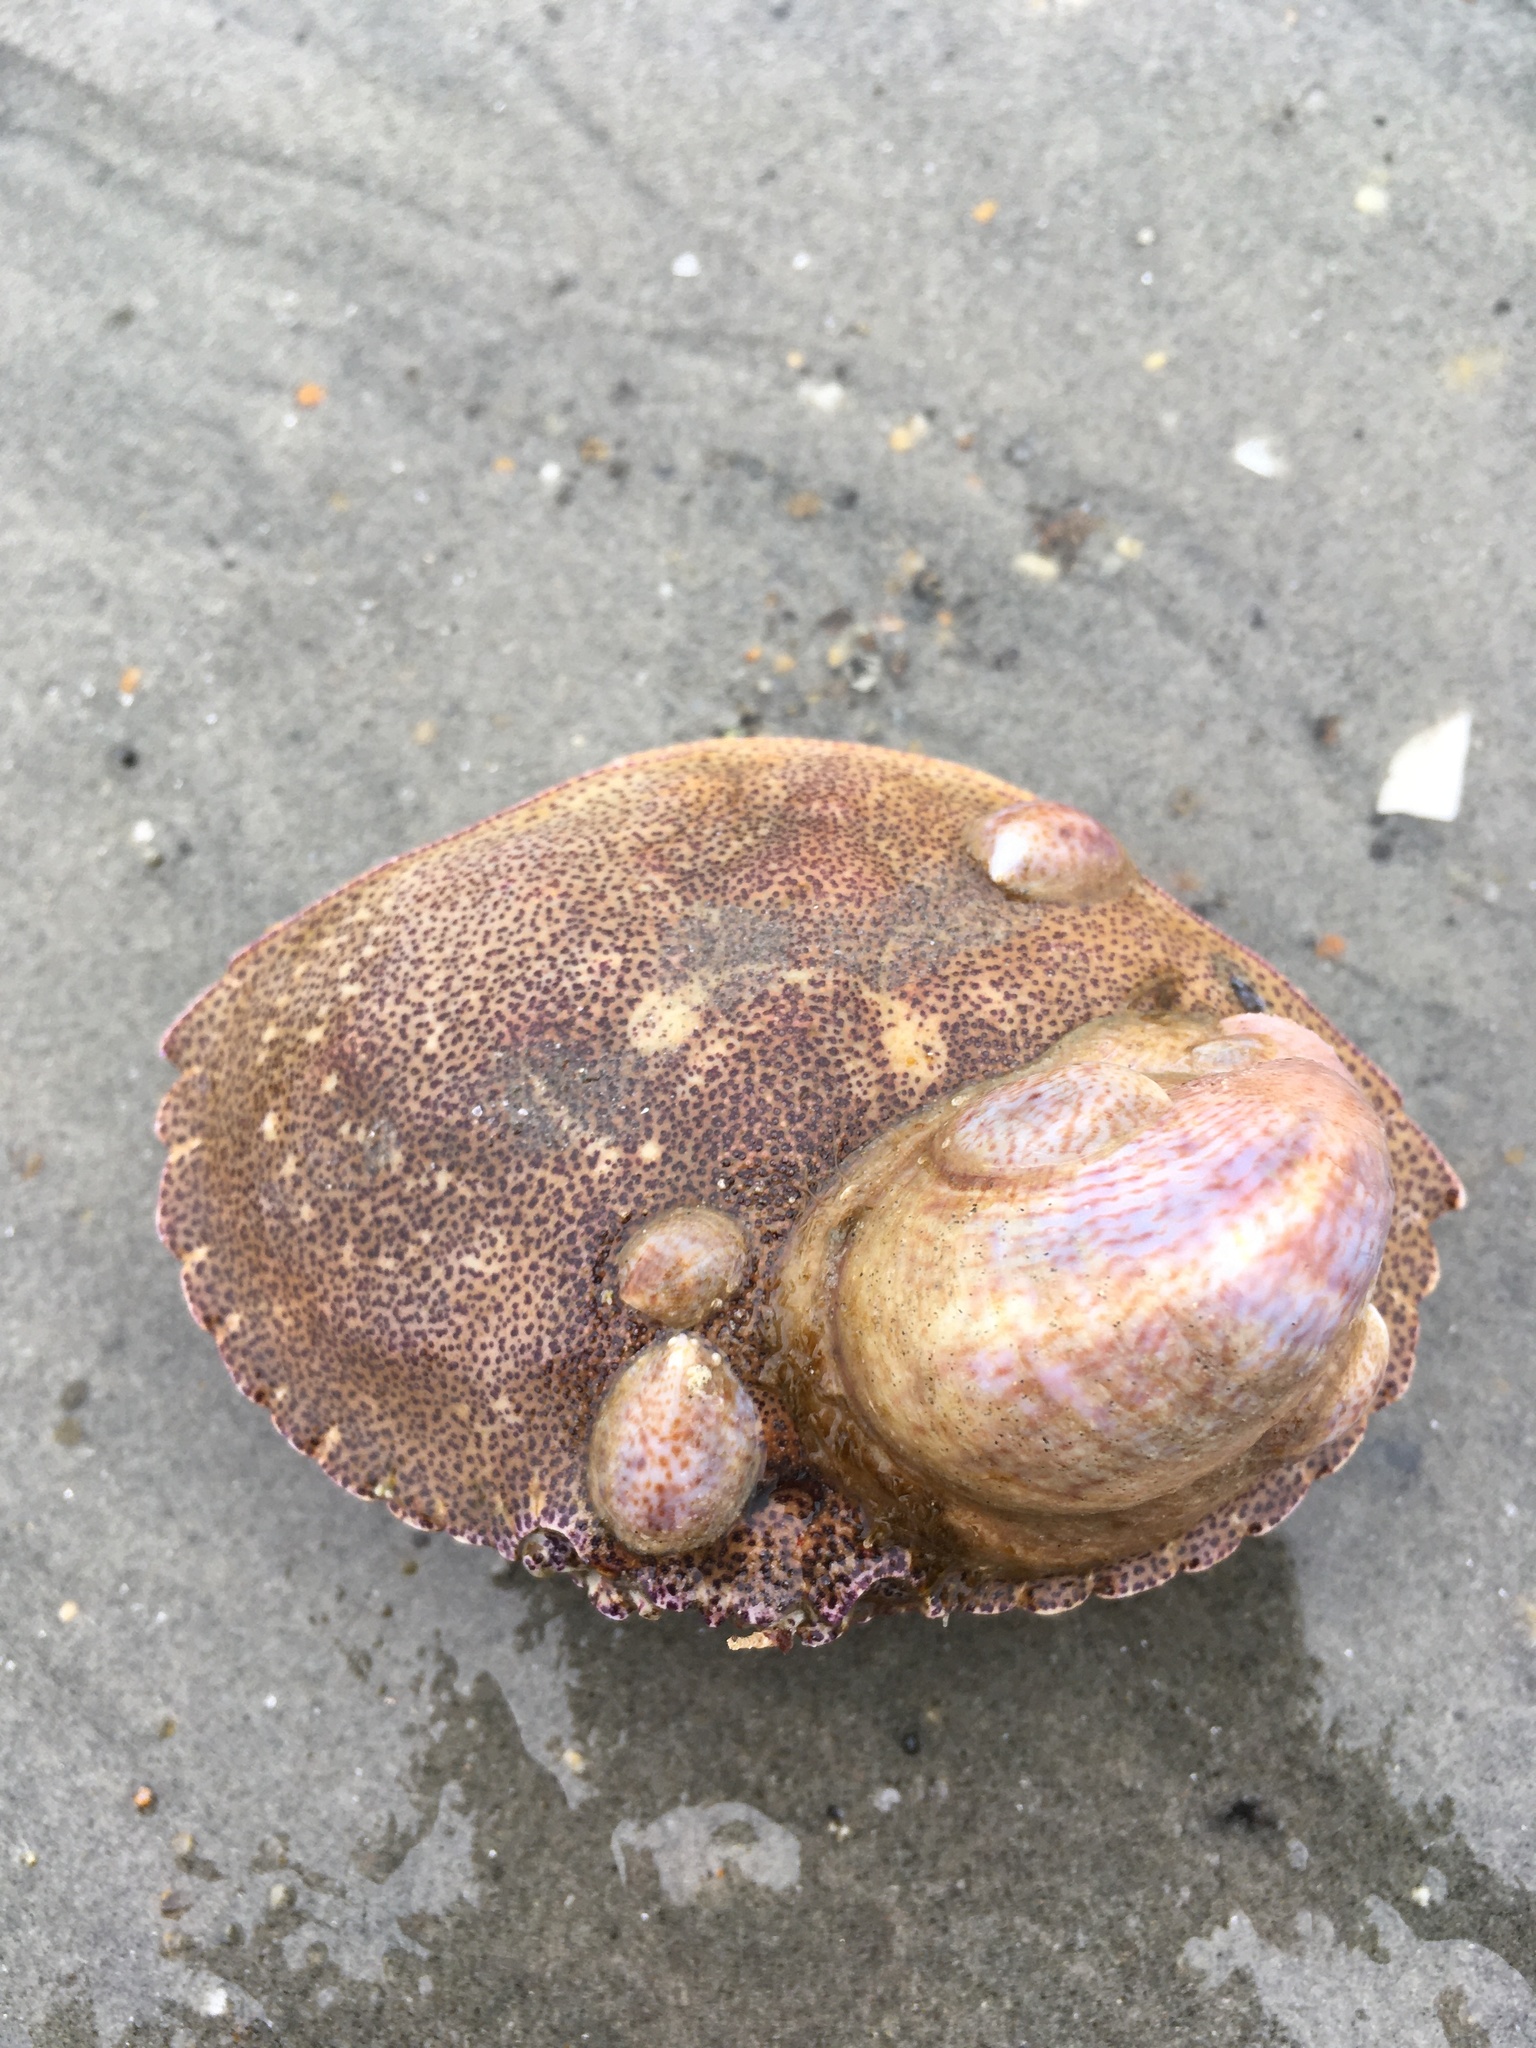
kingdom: Animalia
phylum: Arthropoda
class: Malacostraca
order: Decapoda
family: Cancridae
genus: Cancer
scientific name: Cancer borealis
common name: Jonah crab
